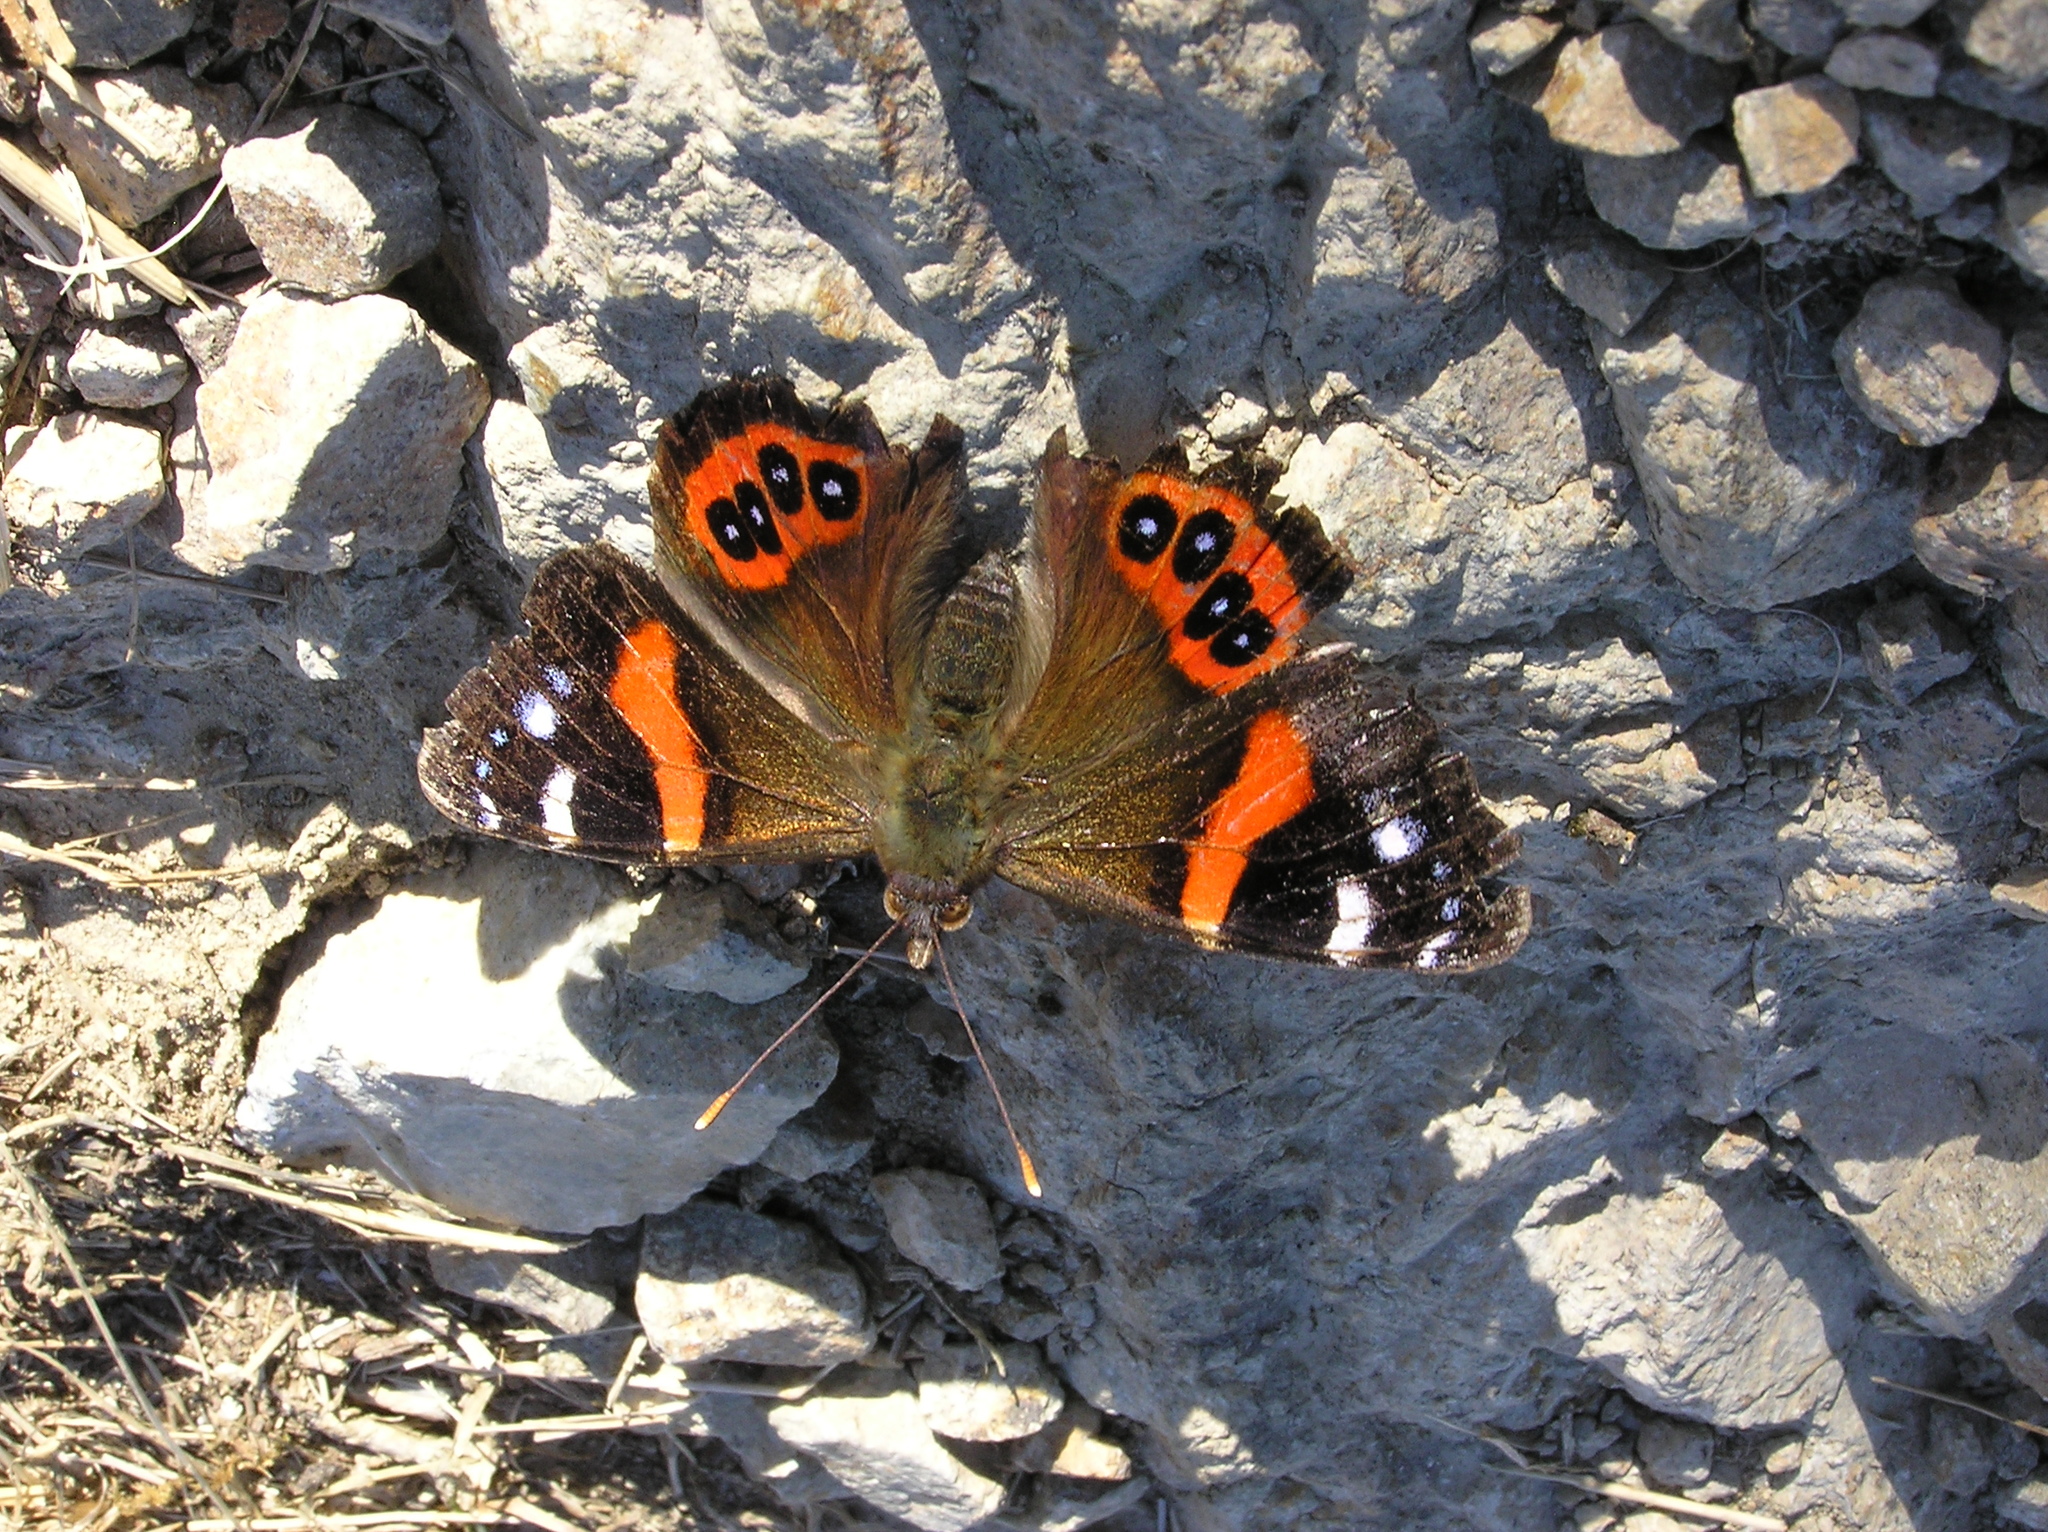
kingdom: Animalia
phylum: Arthropoda
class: Insecta
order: Lepidoptera
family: Nymphalidae
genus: Vanessa
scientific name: Vanessa gonerilla
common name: New zealand red admiral
